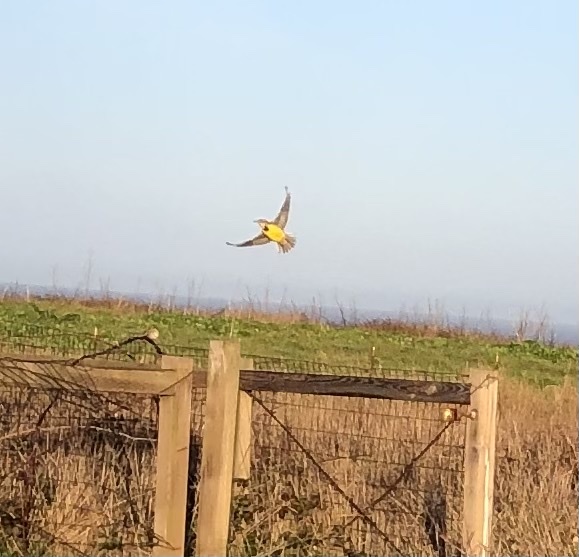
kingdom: Animalia
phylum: Chordata
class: Aves
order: Passeriformes
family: Icteridae
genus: Sturnella
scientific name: Sturnella neglecta
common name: Western meadowlark
